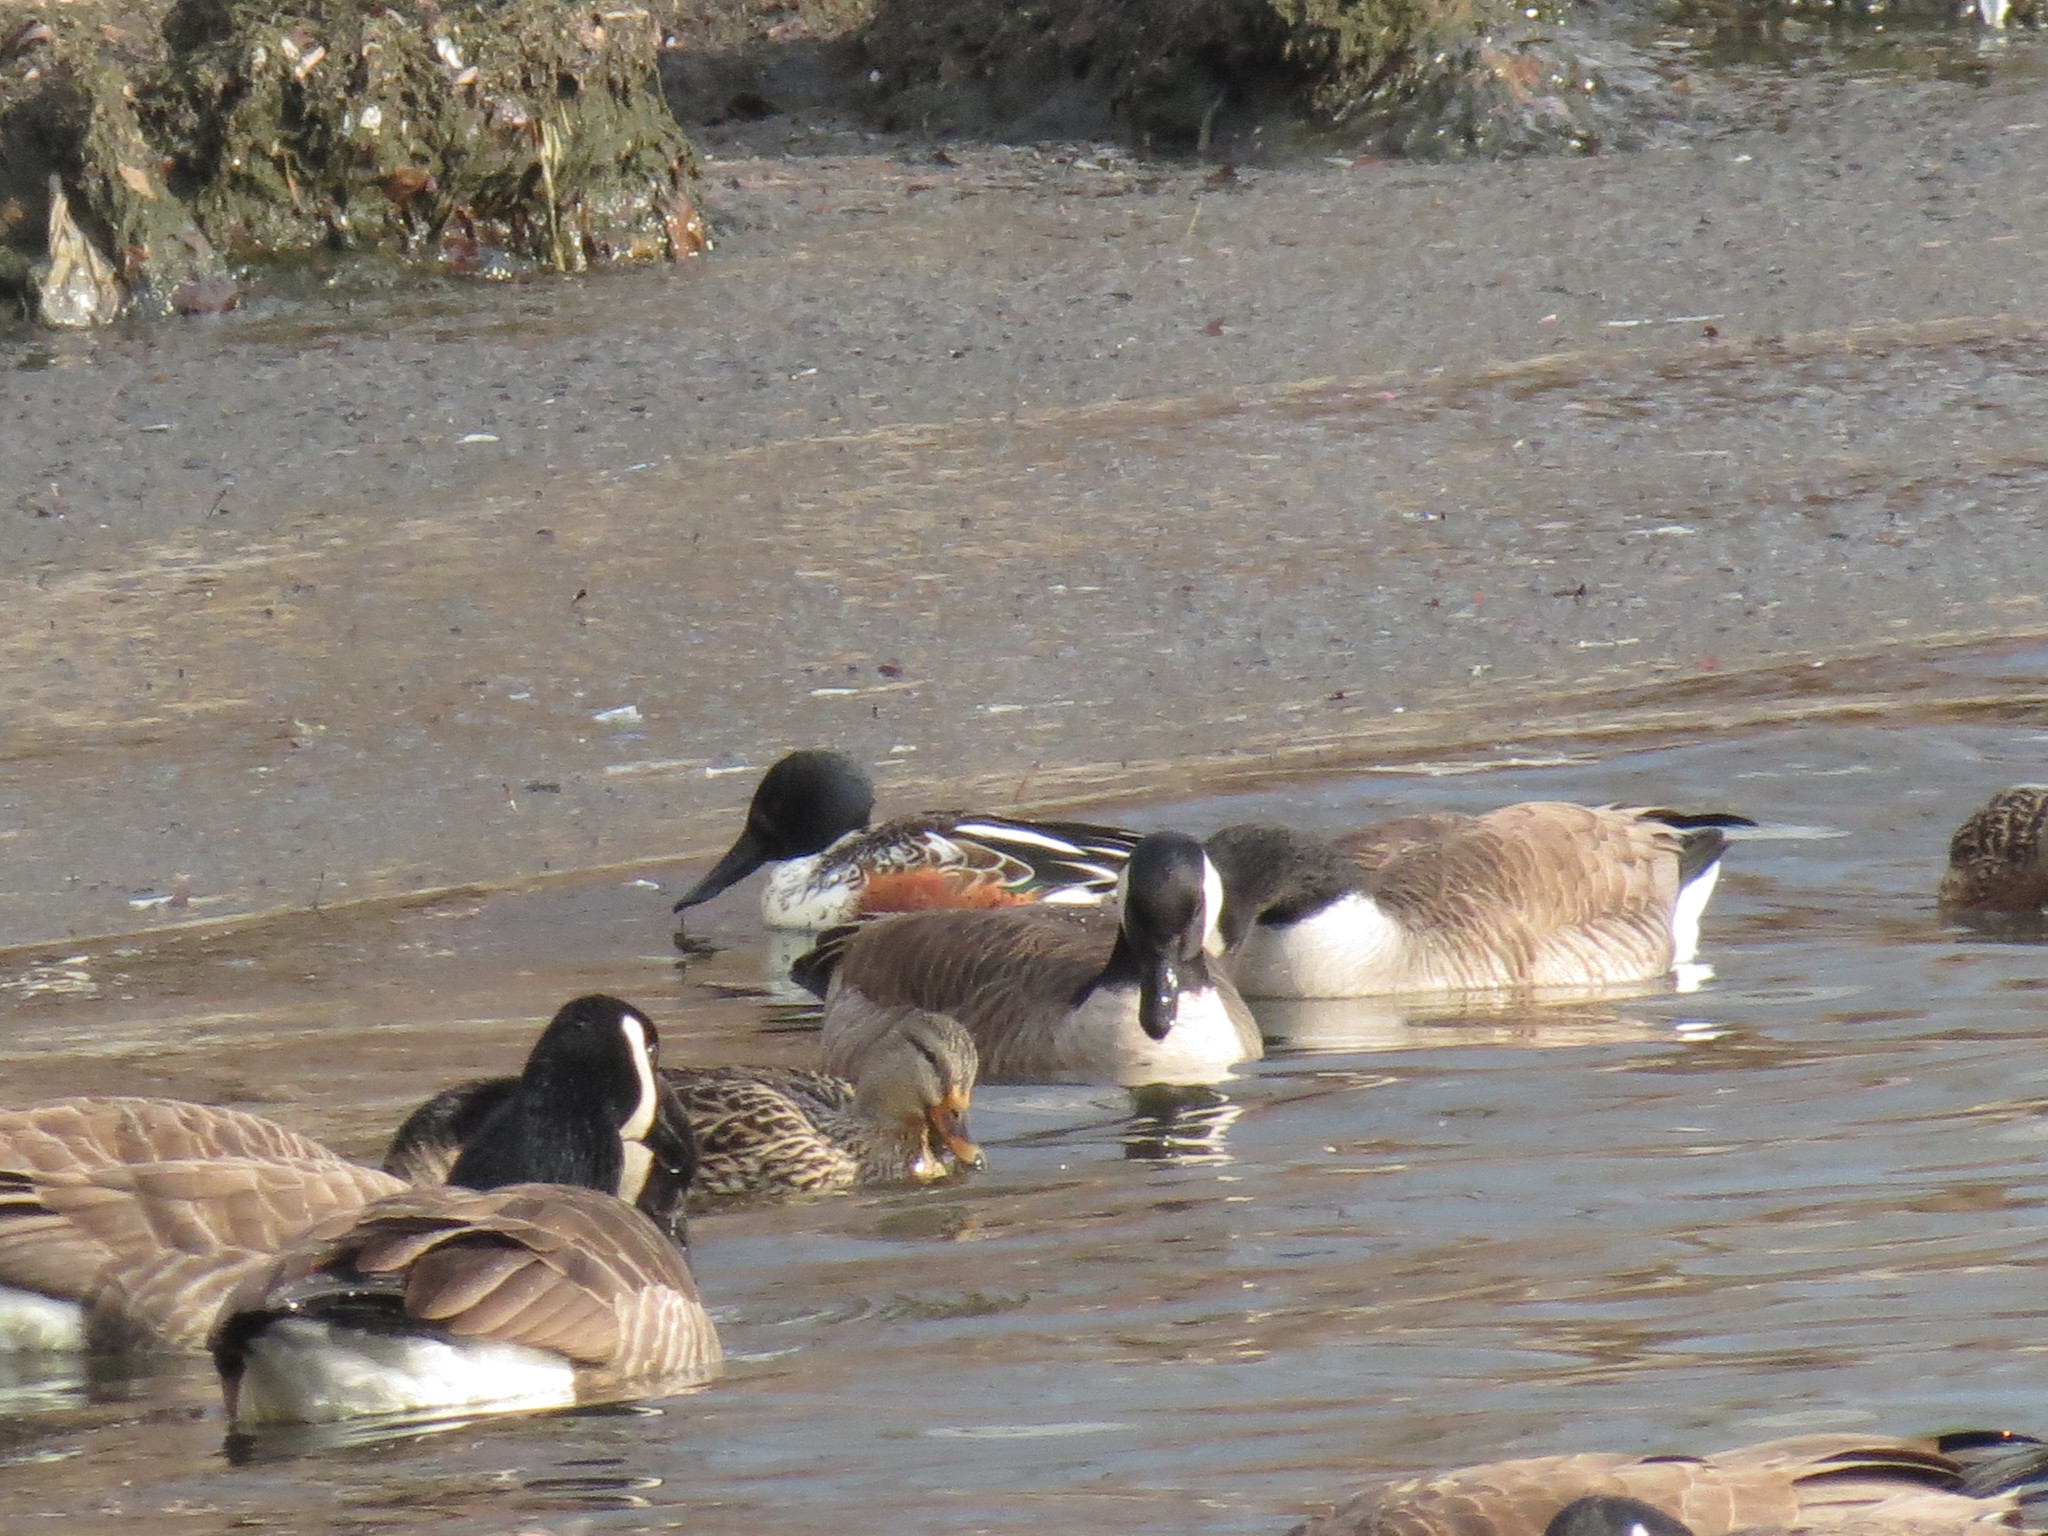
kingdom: Animalia
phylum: Chordata
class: Aves
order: Anseriformes
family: Anatidae
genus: Spatula
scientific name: Spatula clypeata
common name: Northern shoveler
